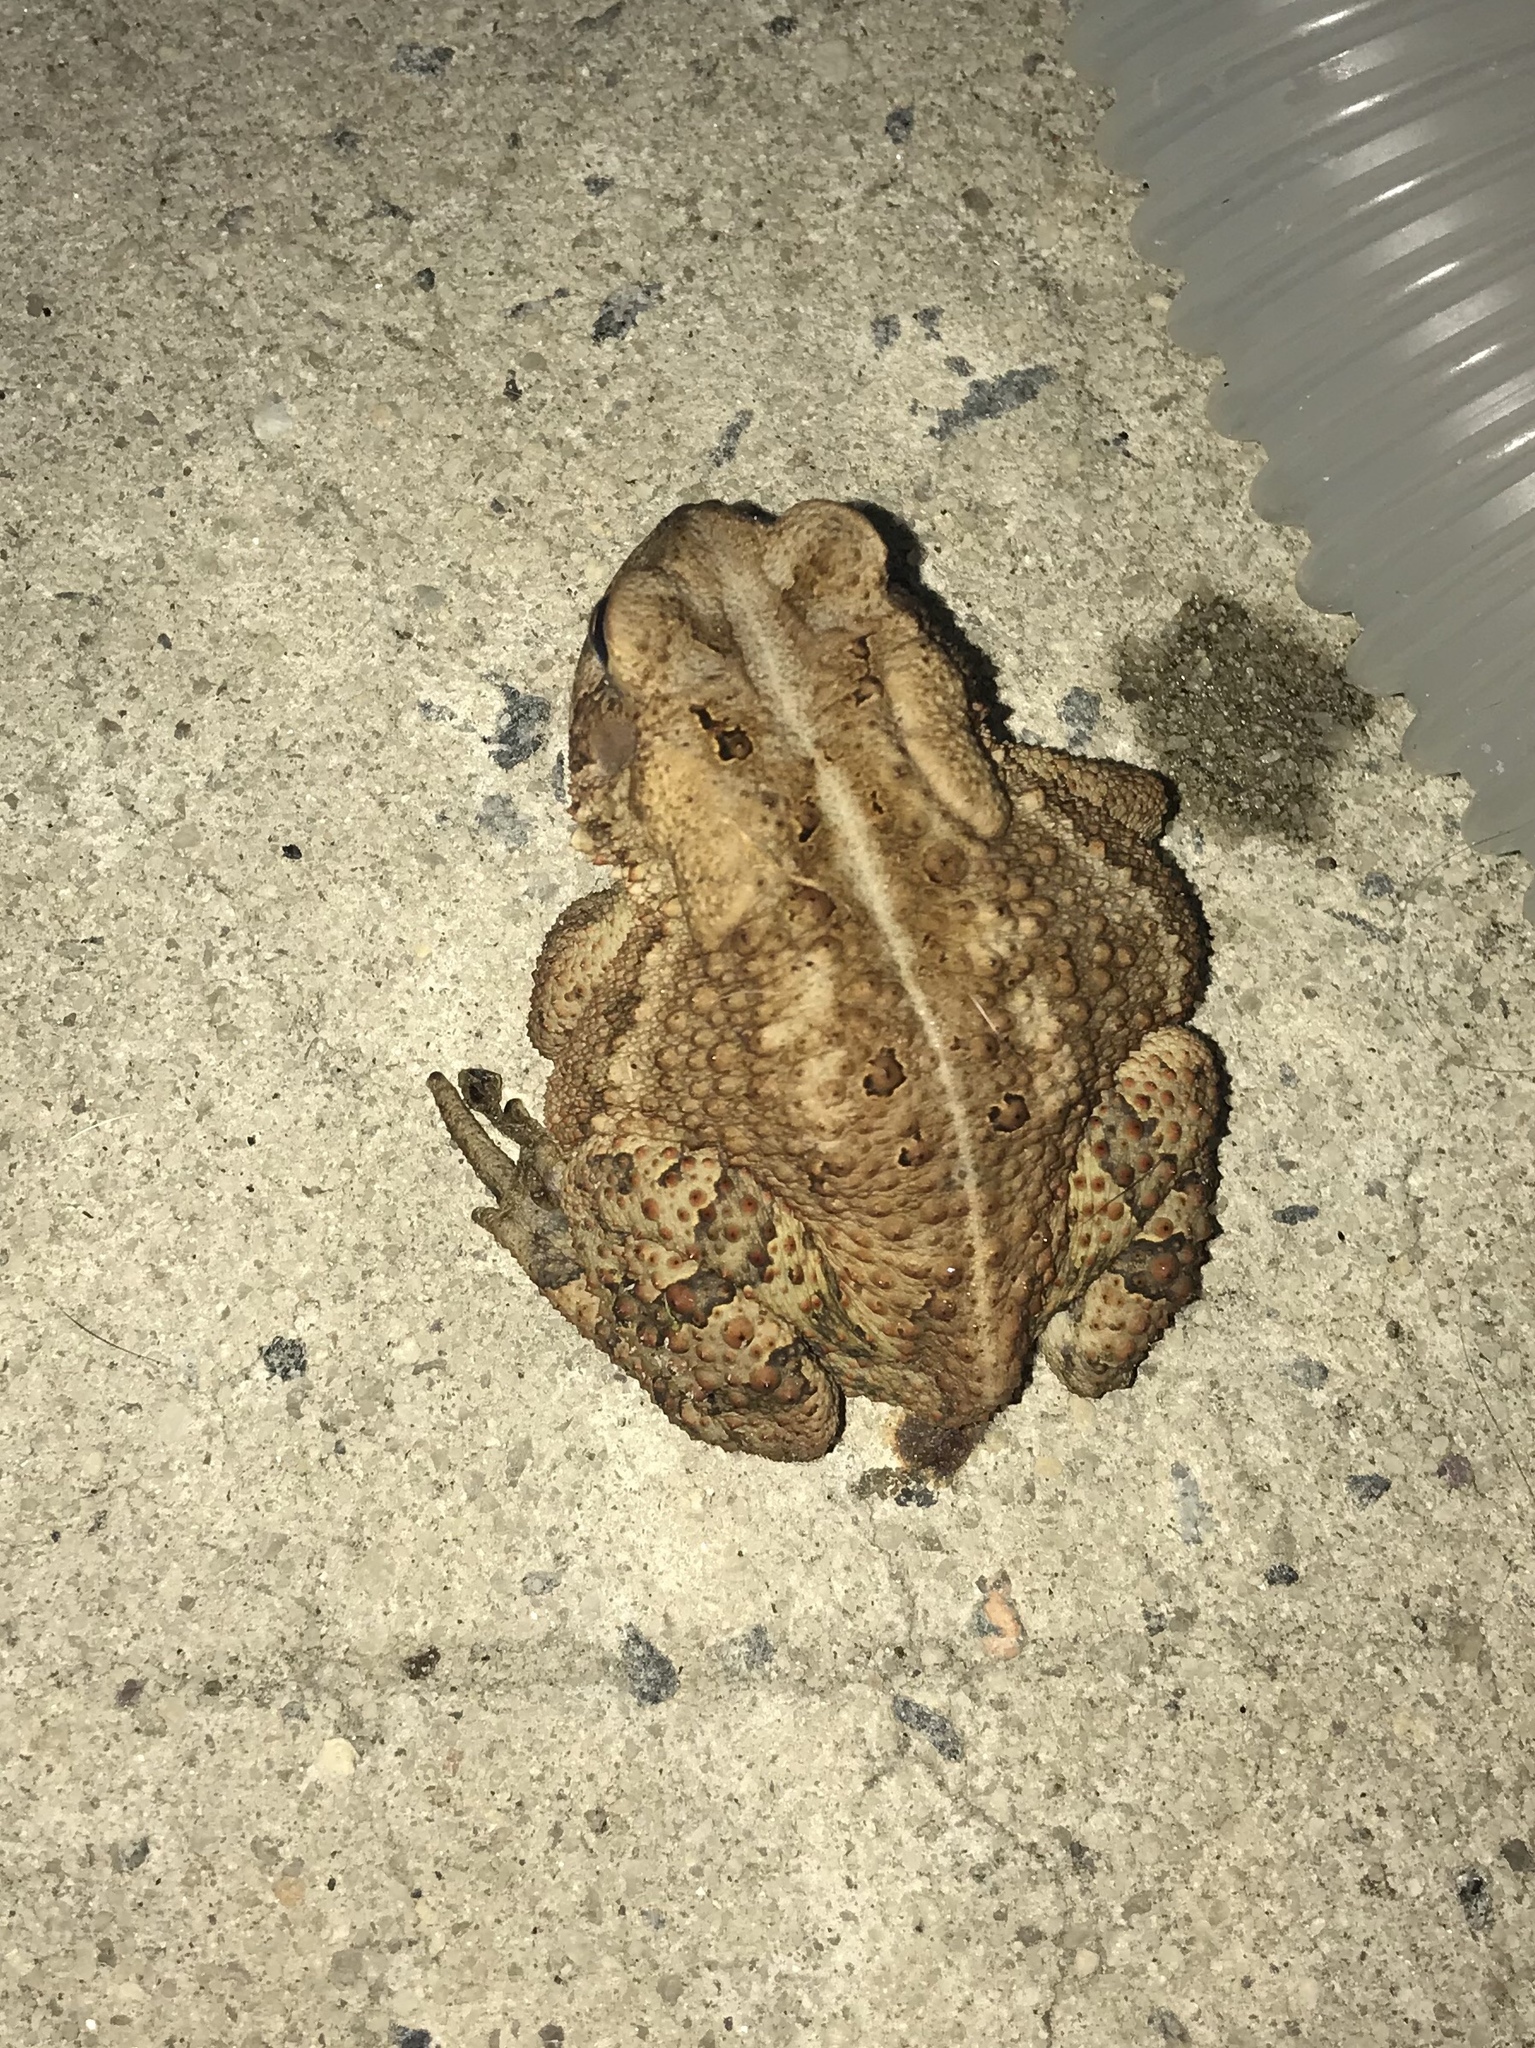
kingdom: Animalia
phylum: Chordata
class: Amphibia
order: Anura
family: Bufonidae
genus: Anaxyrus
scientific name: Anaxyrus americanus
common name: American toad
